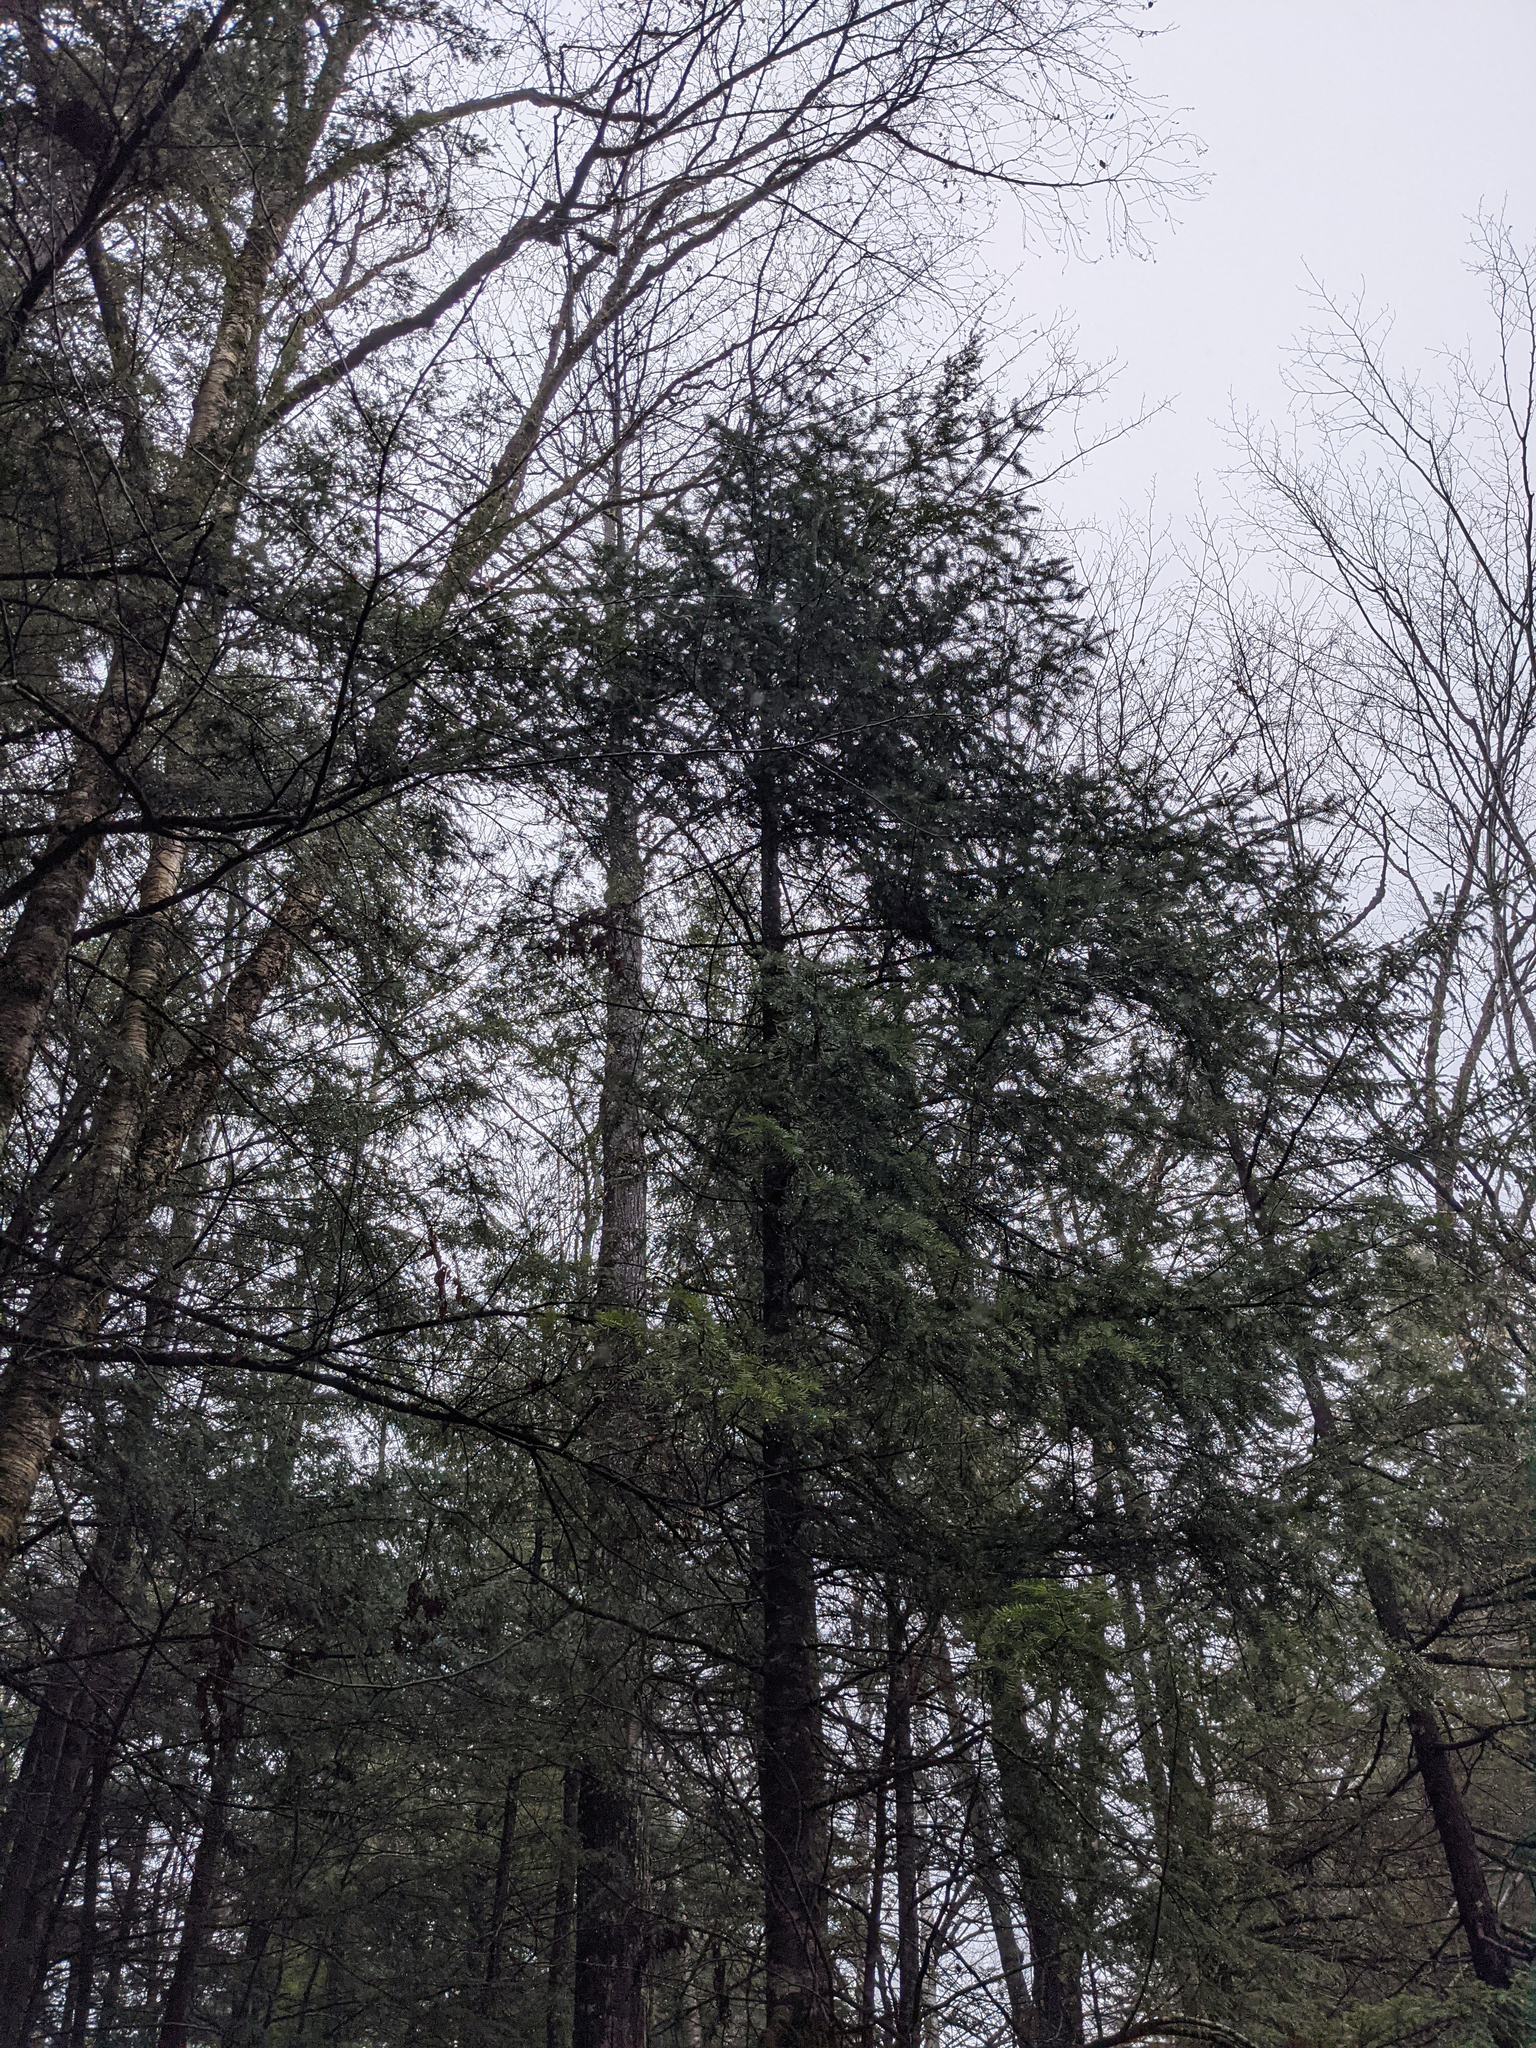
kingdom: Plantae
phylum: Tracheophyta
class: Pinopsida
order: Pinales
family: Pinaceae
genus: Abies
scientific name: Abies balsamea
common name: Balsam fir
